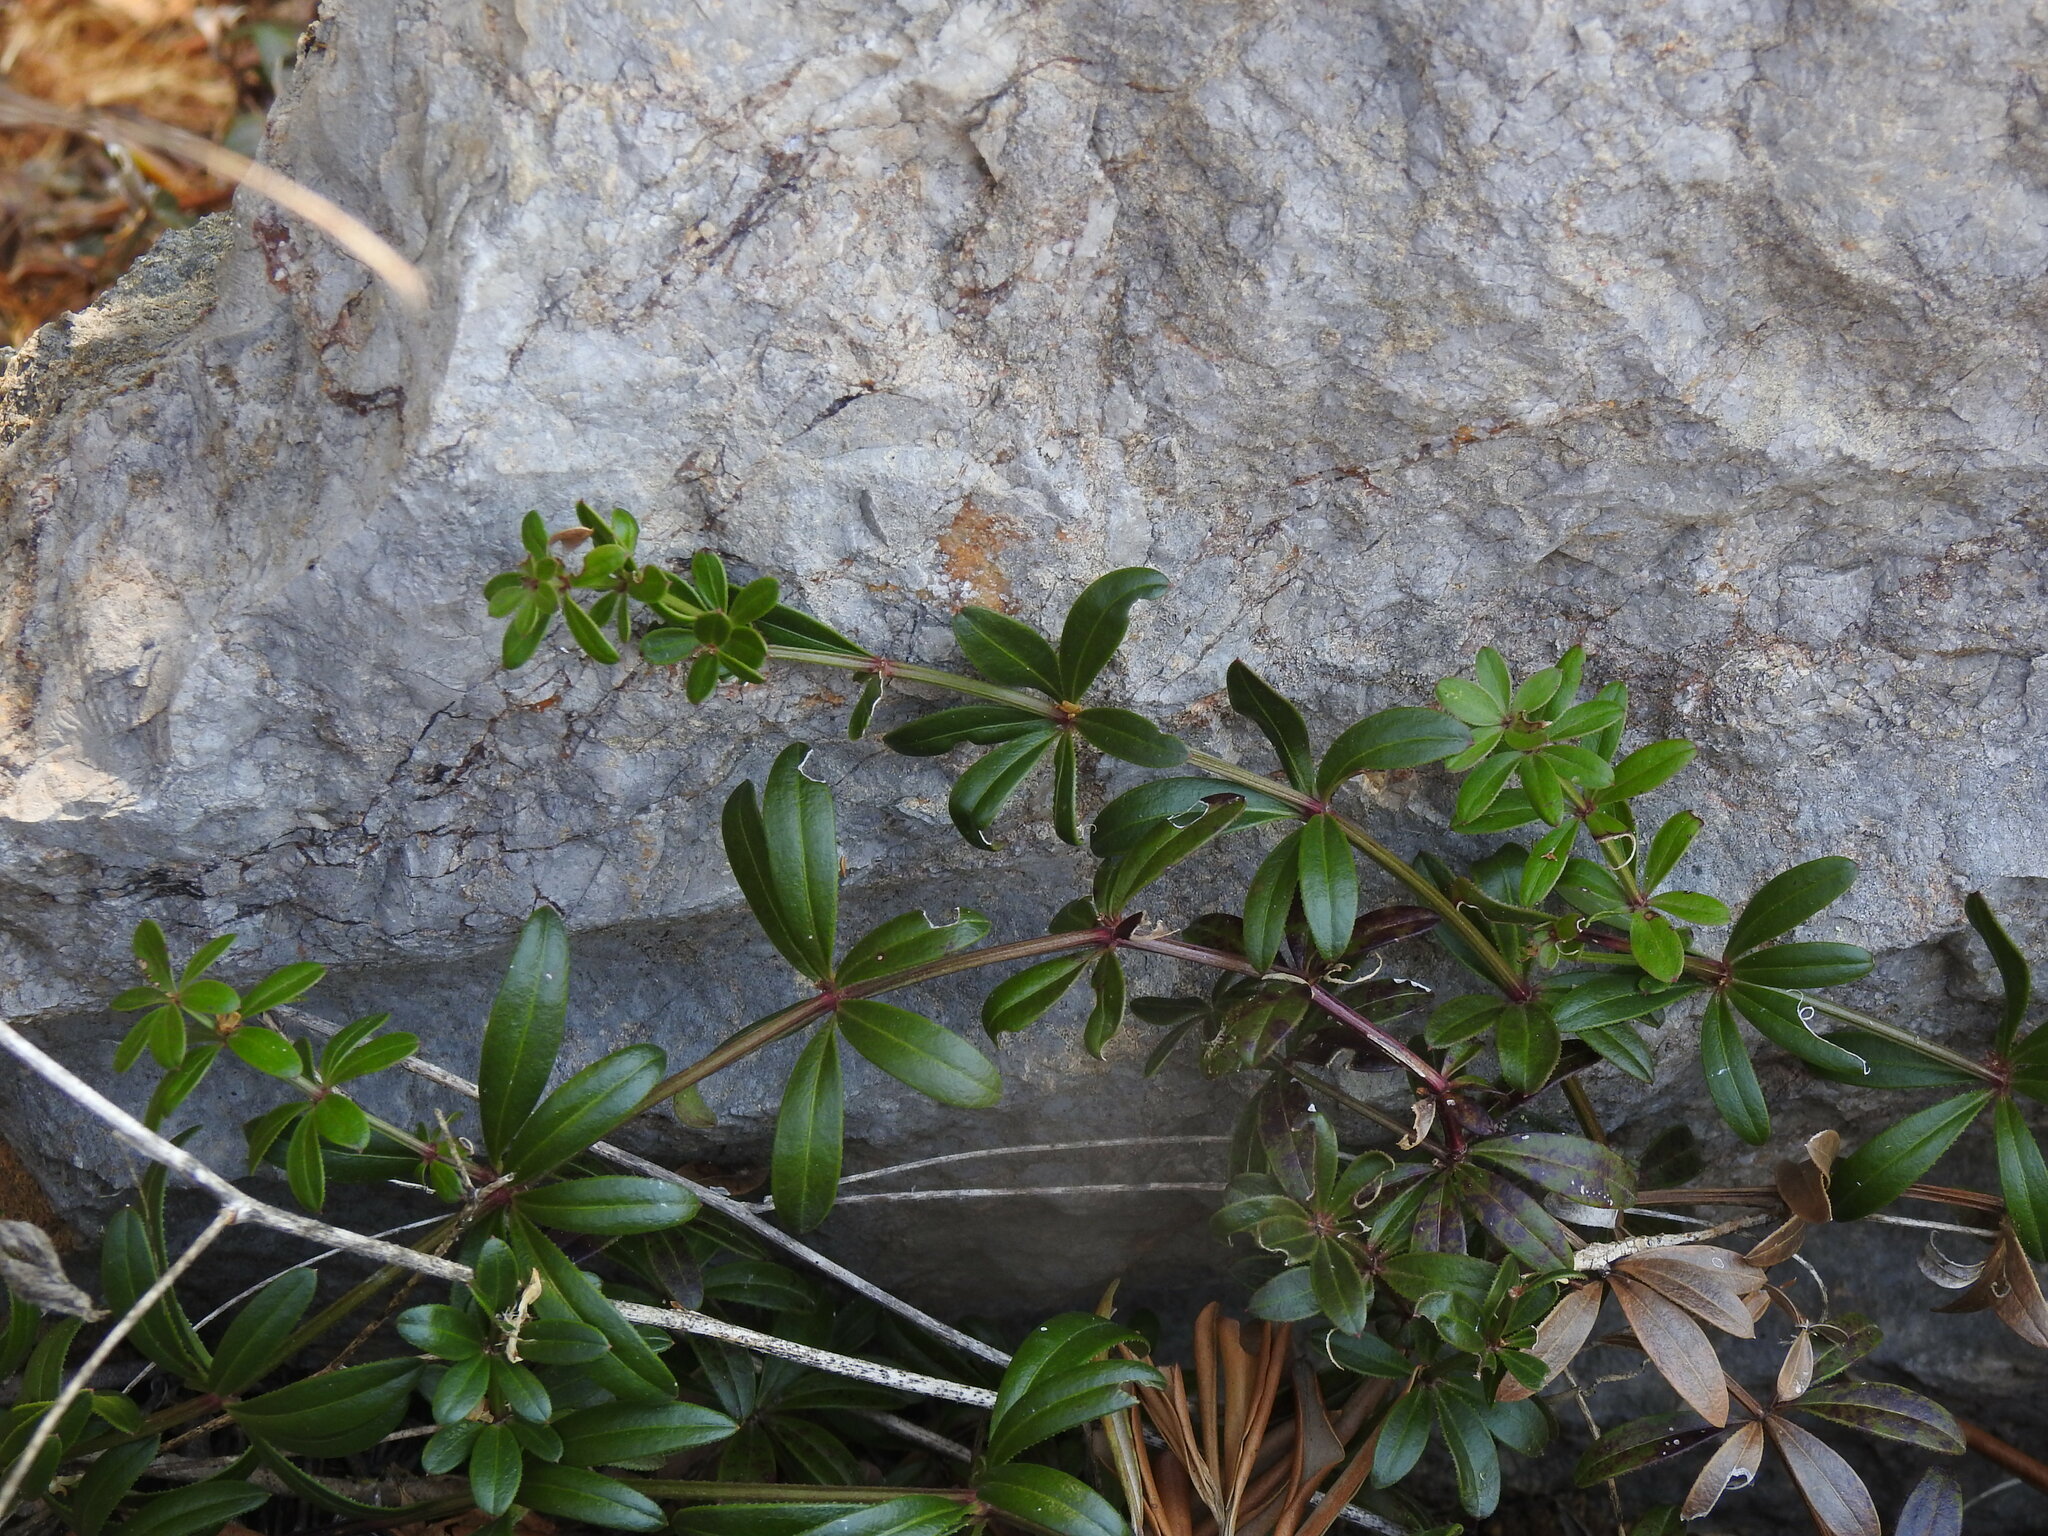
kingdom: Plantae
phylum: Tracheophyta
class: Magnoliopsida
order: Gentianales
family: Rubiaceae
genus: Rubia
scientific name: Rubia peregrina
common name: Wild madder
